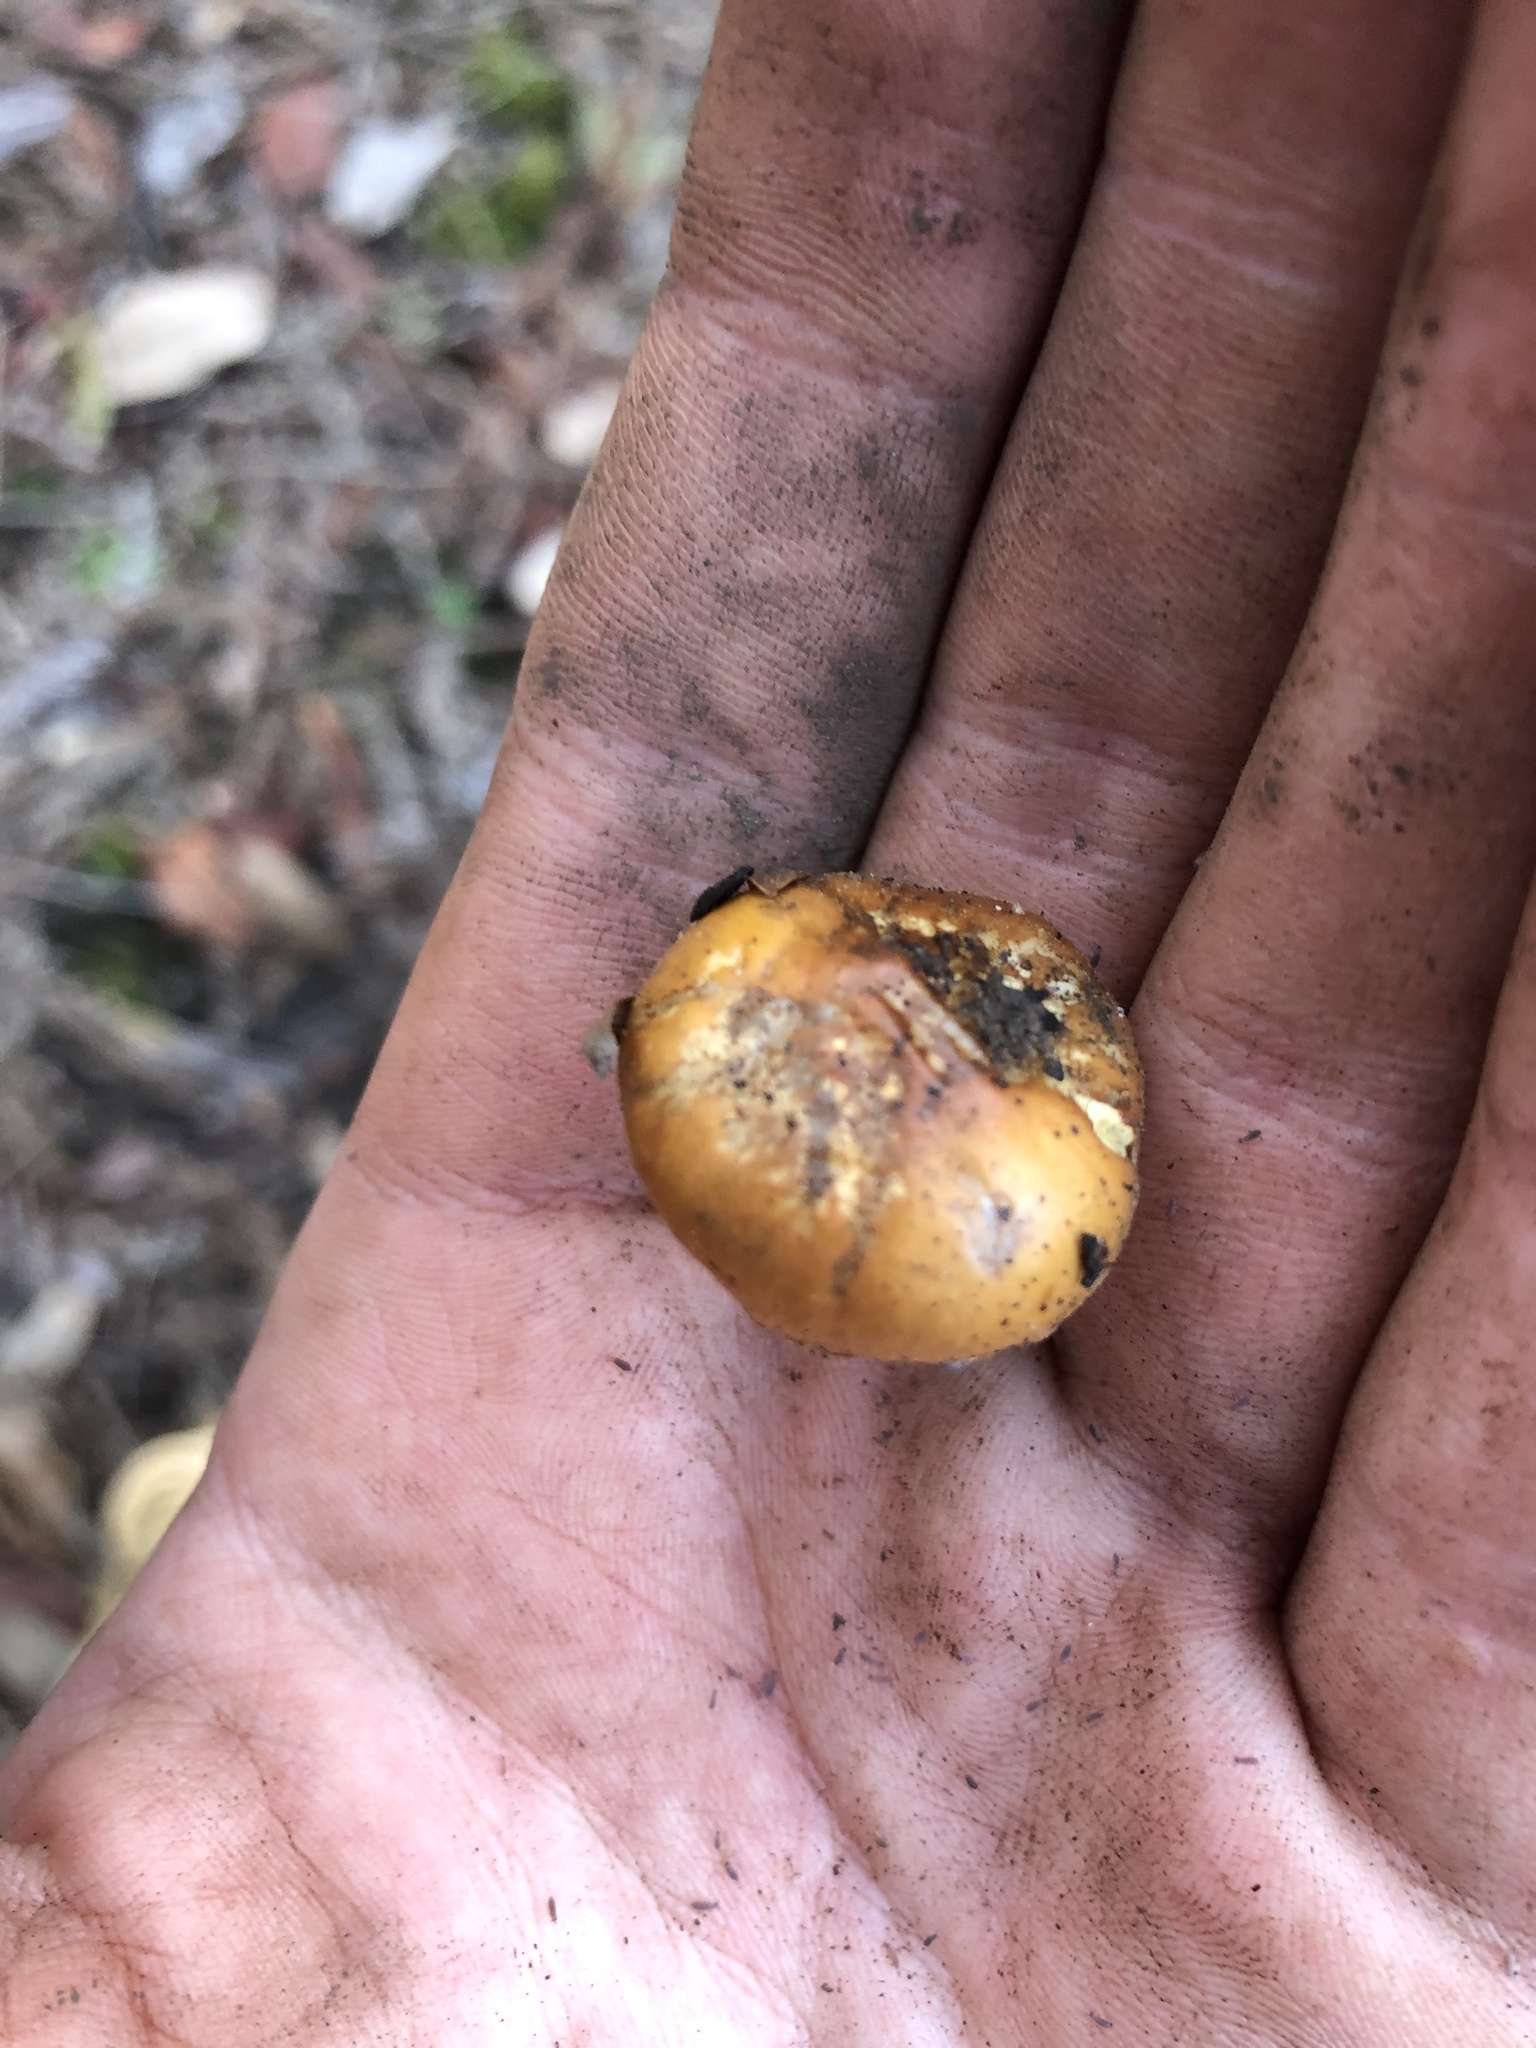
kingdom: Fungi
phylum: Basidiomycota
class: Agaricomycetes
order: Agaricales
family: Strophariaceae
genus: Pholiota
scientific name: Pholiota carbonaria
